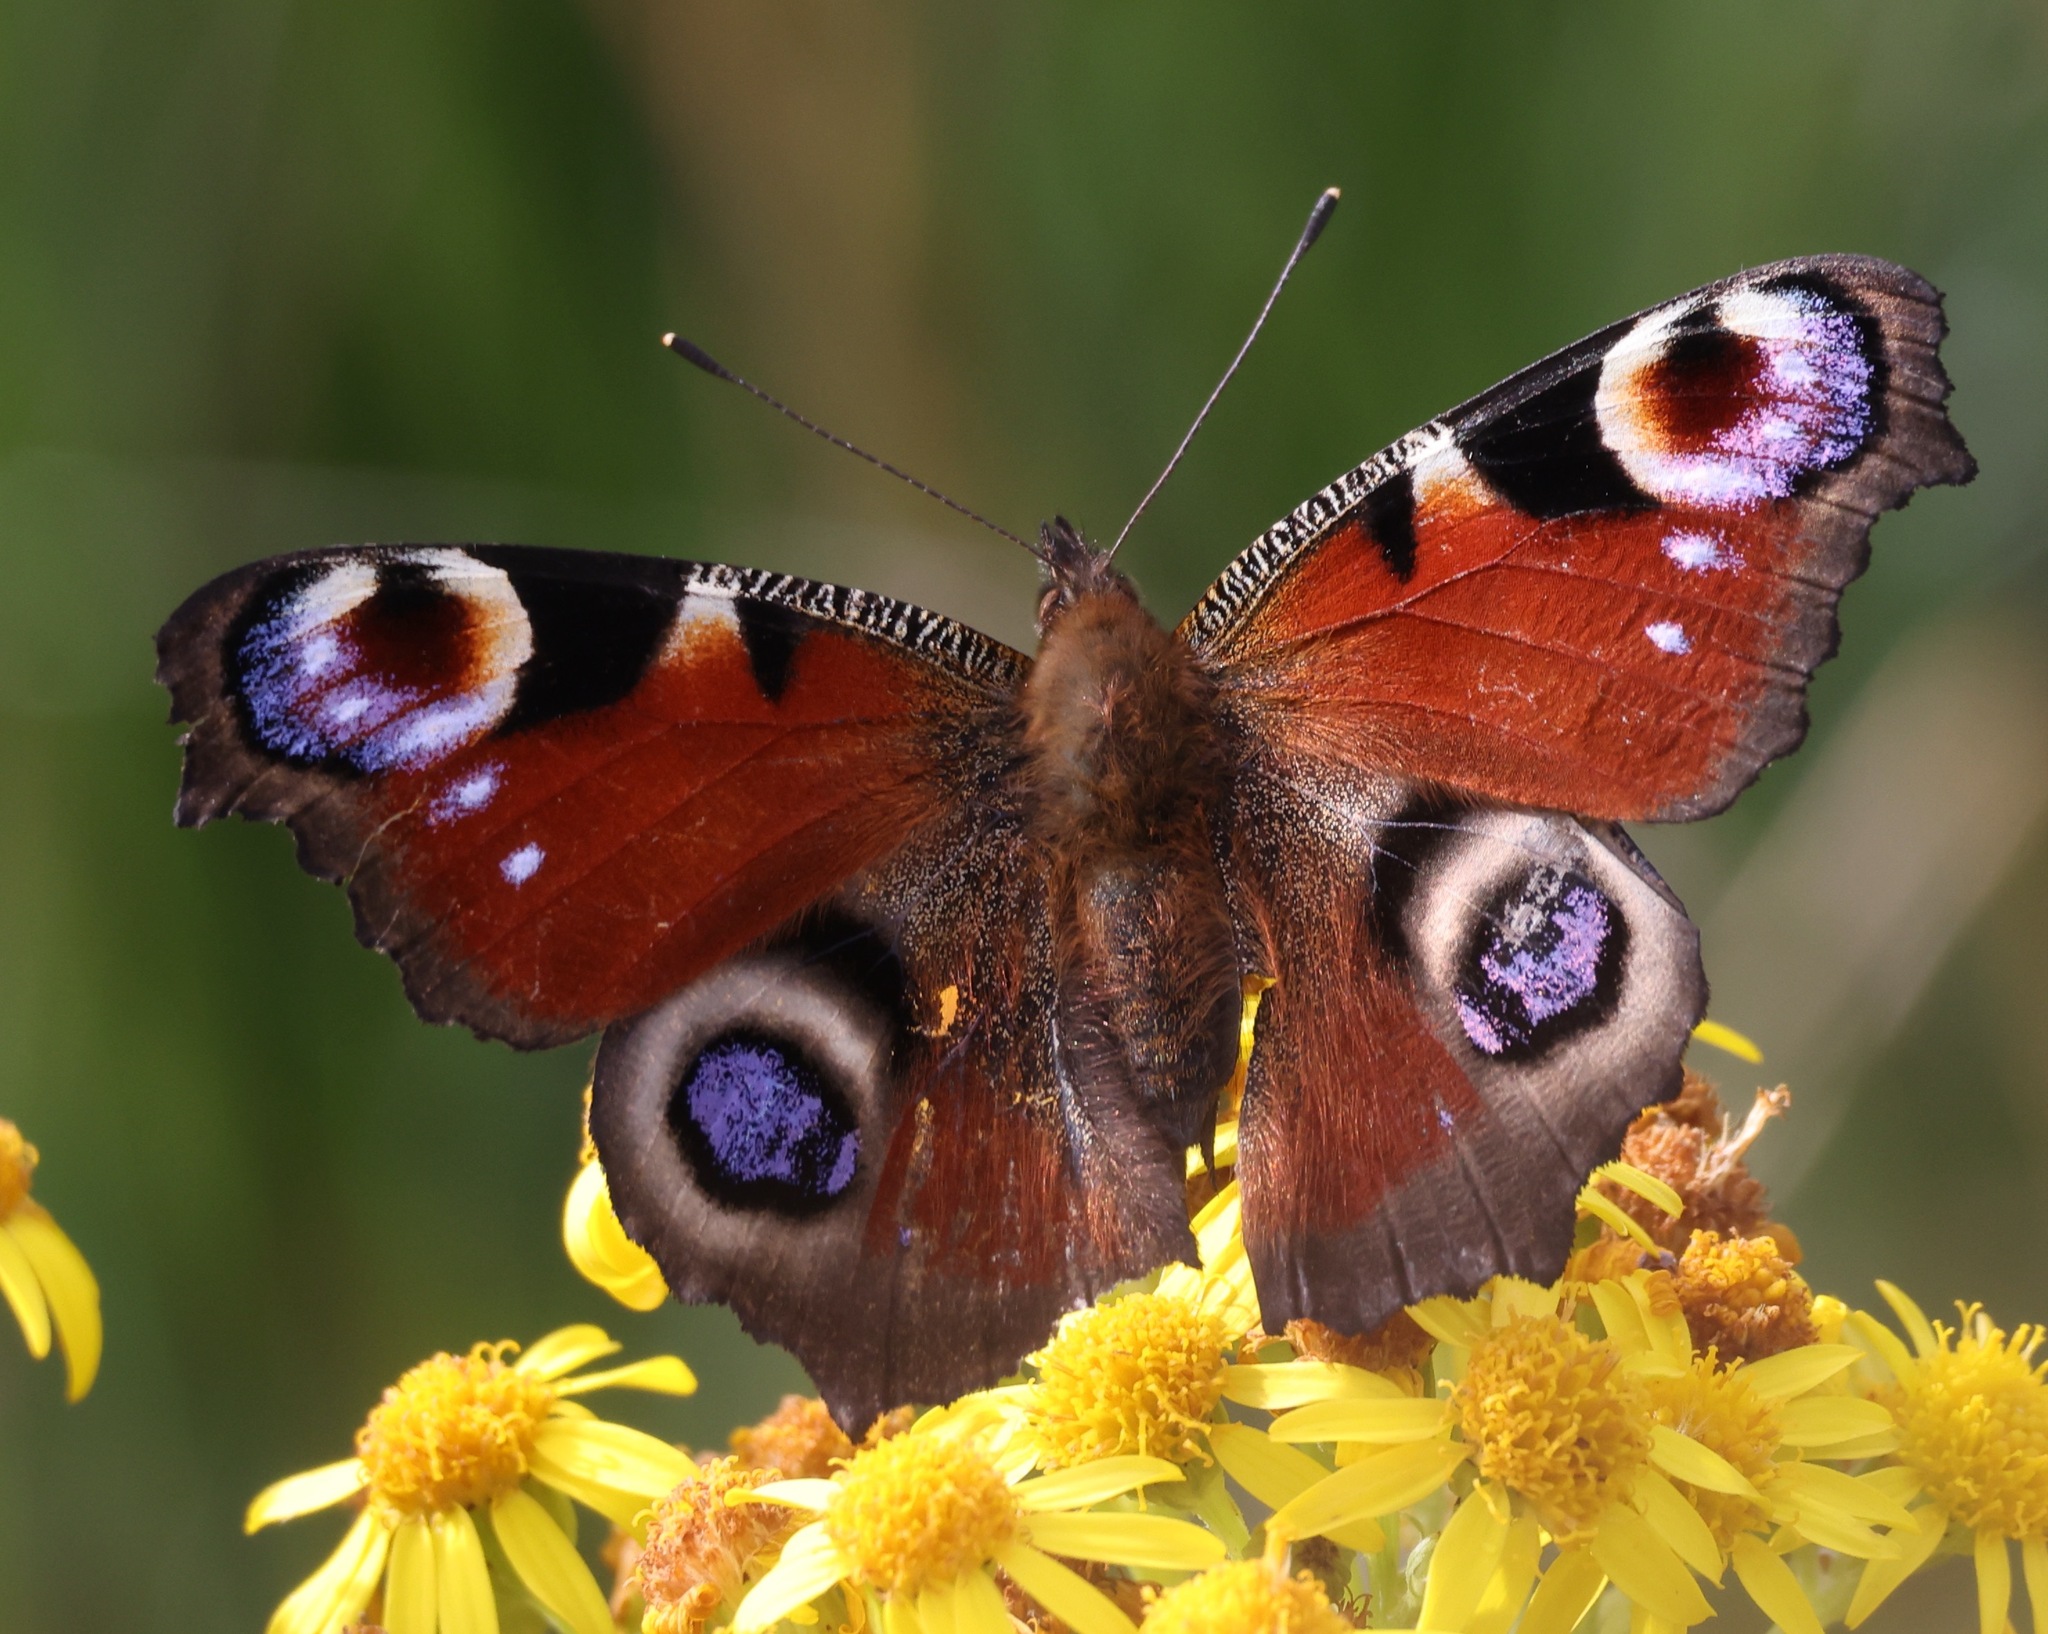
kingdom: Animalia
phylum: Arthropoda
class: Insecta
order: Lepidoptera
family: Nymphalidae
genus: Aglais
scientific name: Aglais io
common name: Peacock
